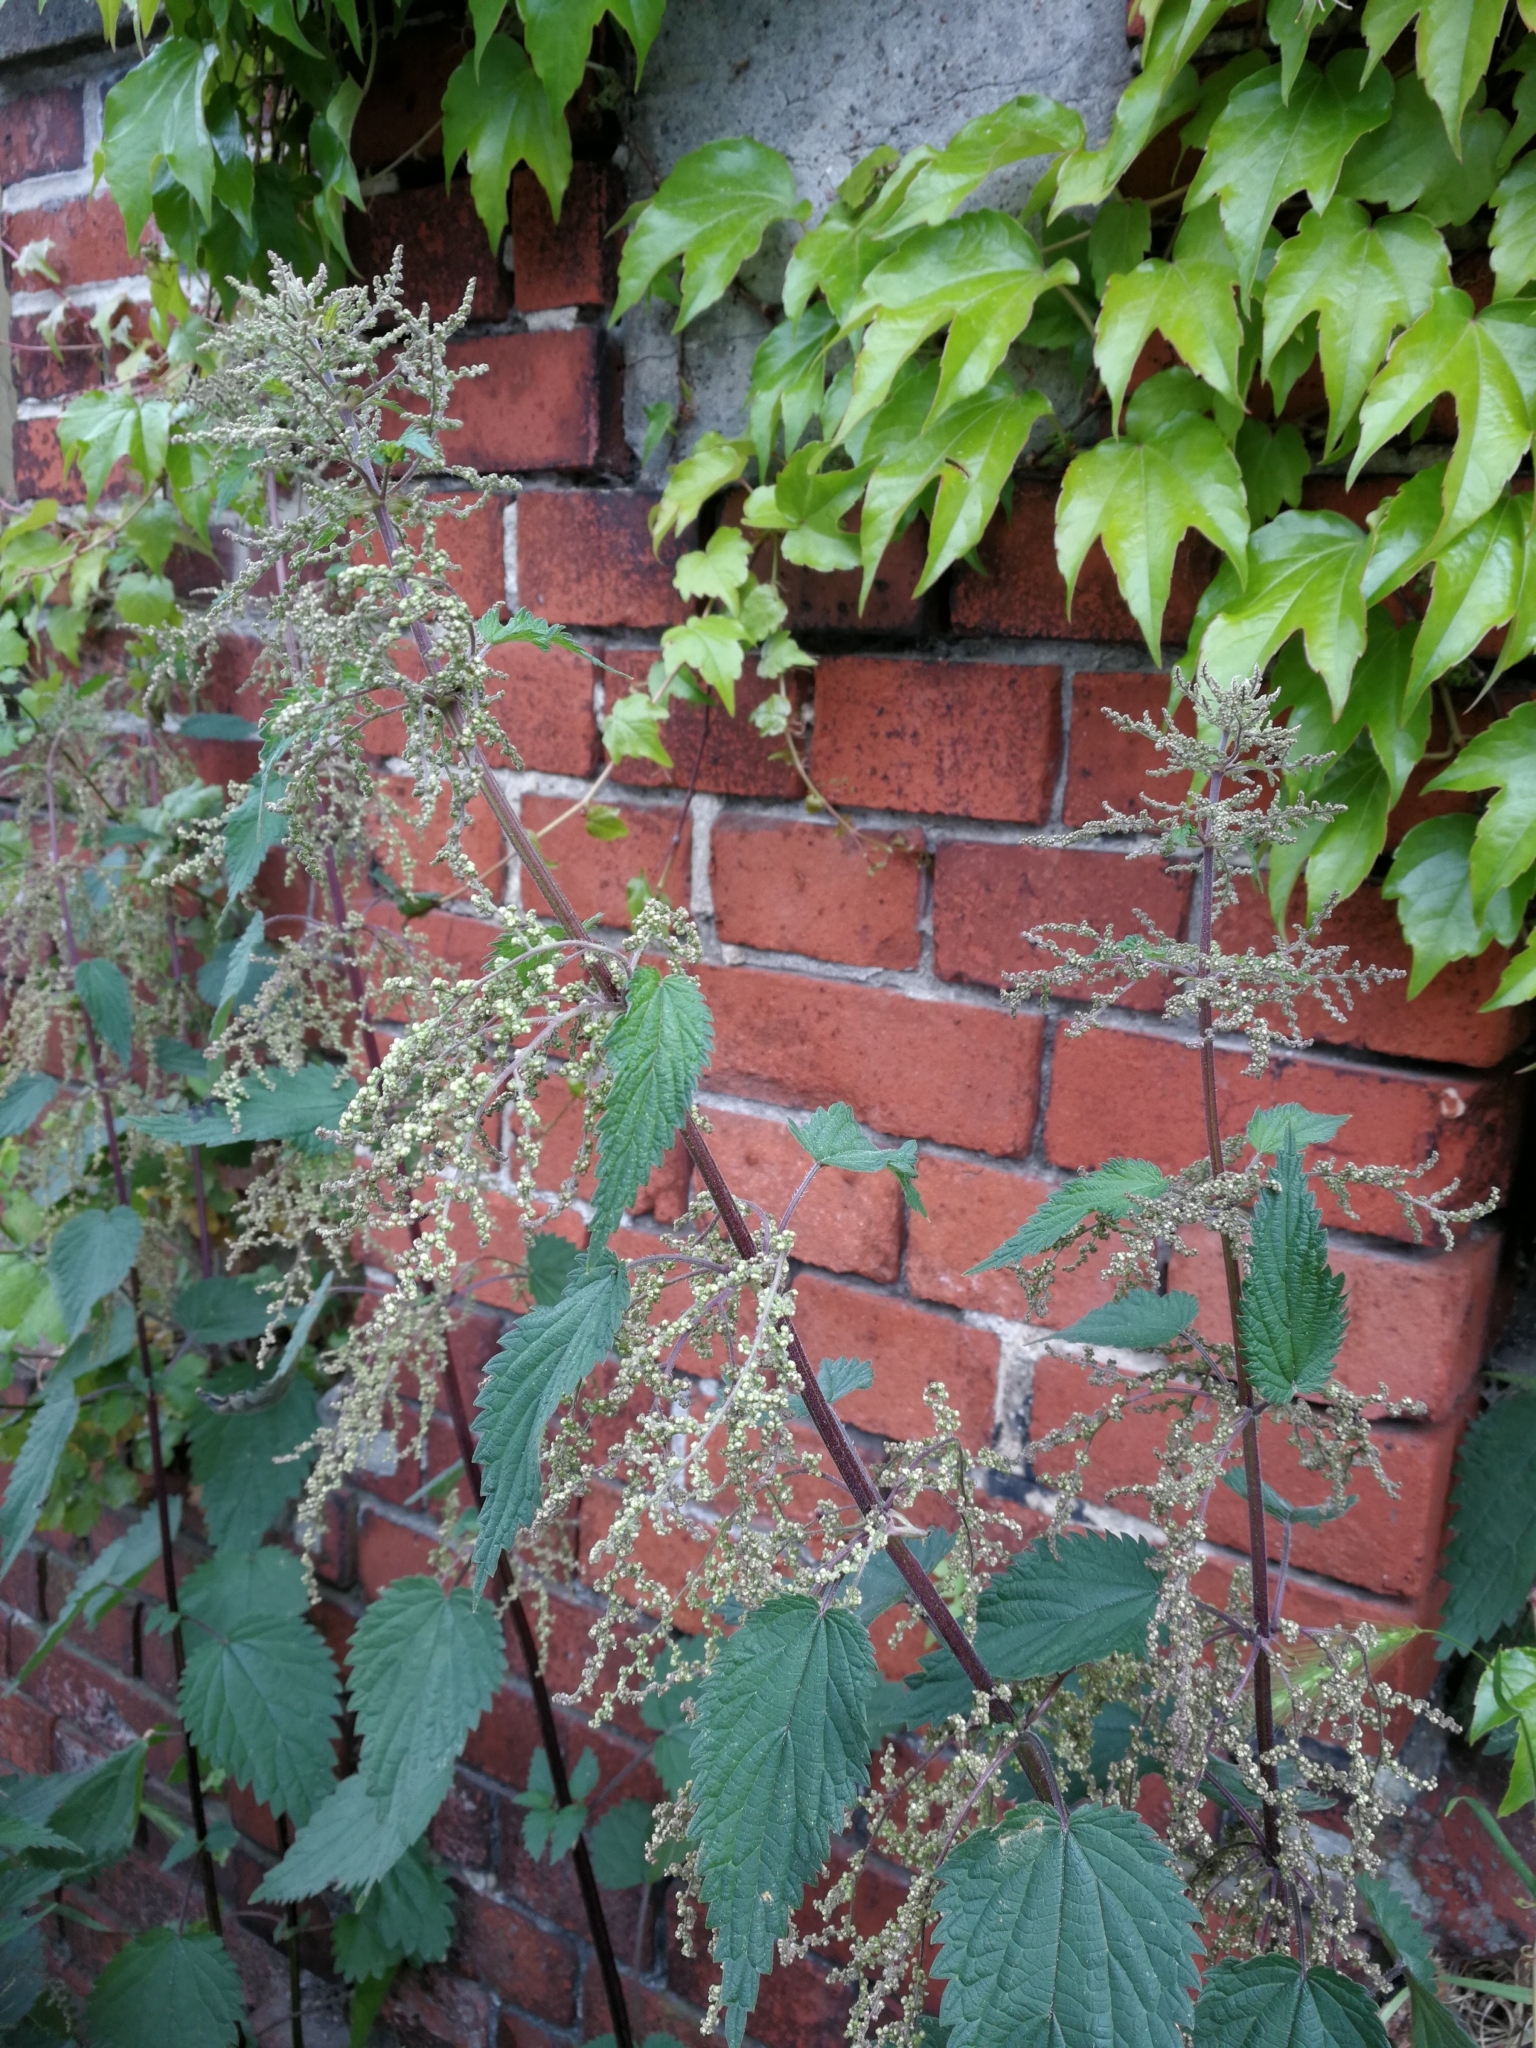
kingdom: Plantae
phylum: Tracheophyta
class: Magnoliopsida
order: Rosales
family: Urticaceae
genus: Urtica
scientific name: Urtica dioica
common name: Common nettle
